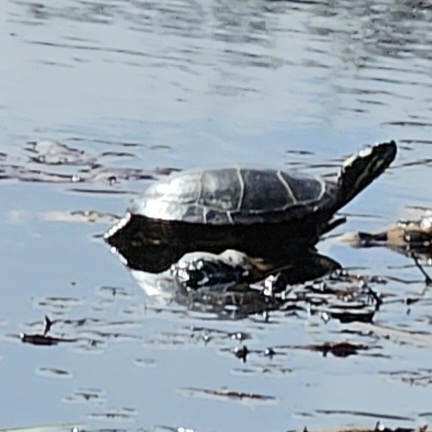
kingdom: Animalia
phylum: Chordata
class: Testudines
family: Emydidae
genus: Chrysemys
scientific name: Chrysemys picta
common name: Painted turtle
